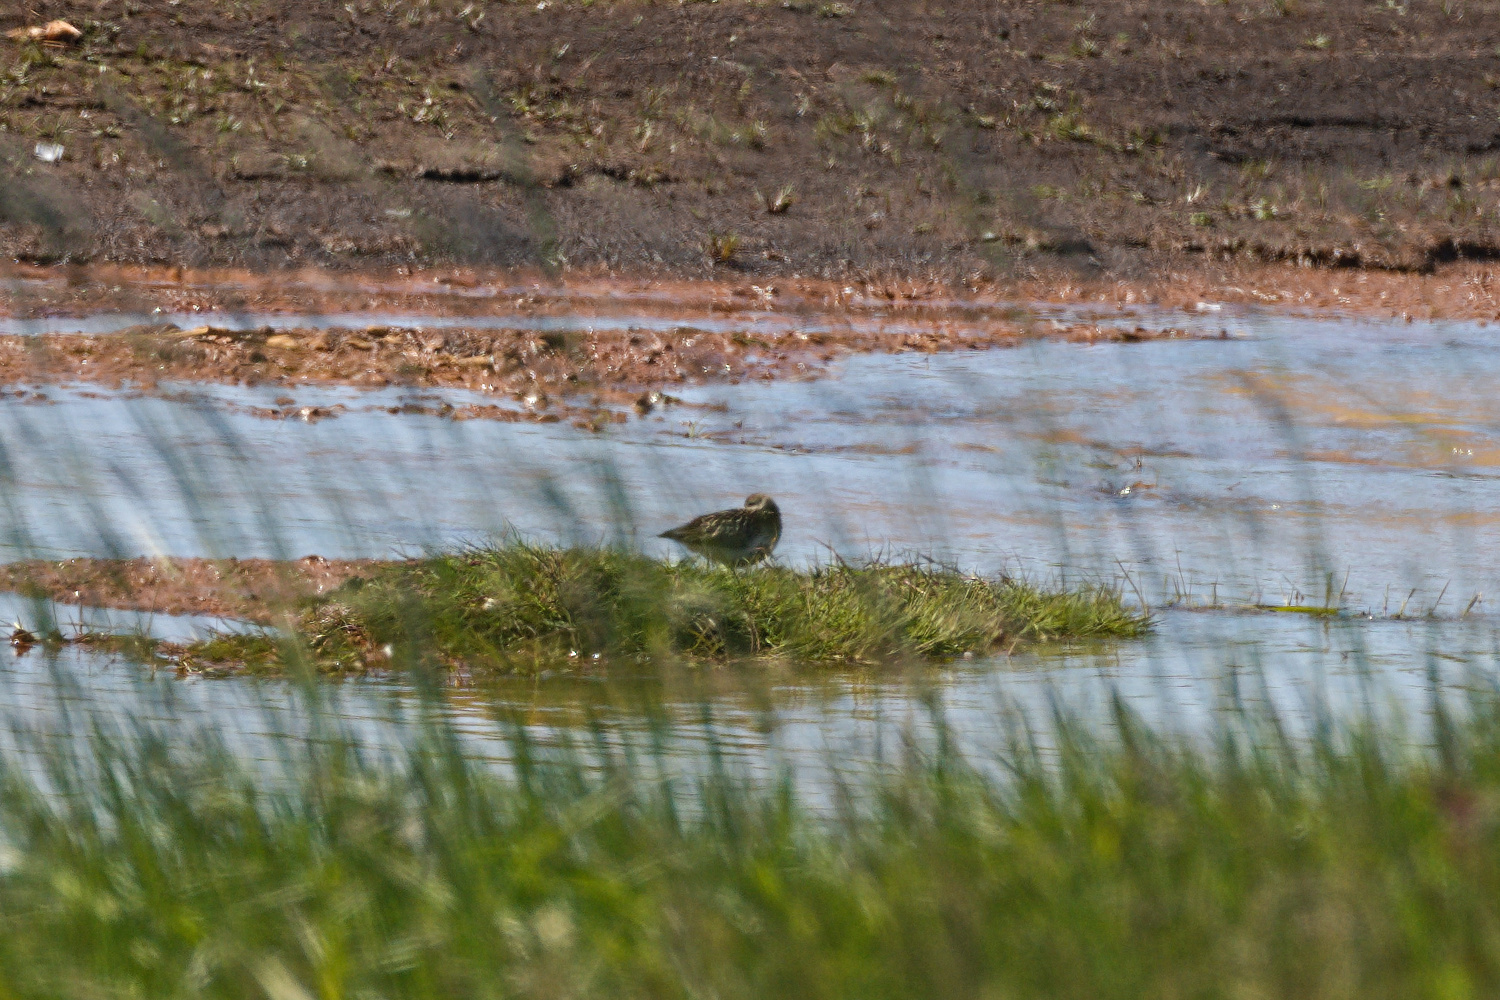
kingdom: Animalia
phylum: Chordata
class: Aves
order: Charadriiformes
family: Scolopacidae
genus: Tringa
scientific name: Tringa totanus
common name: Common redshank
